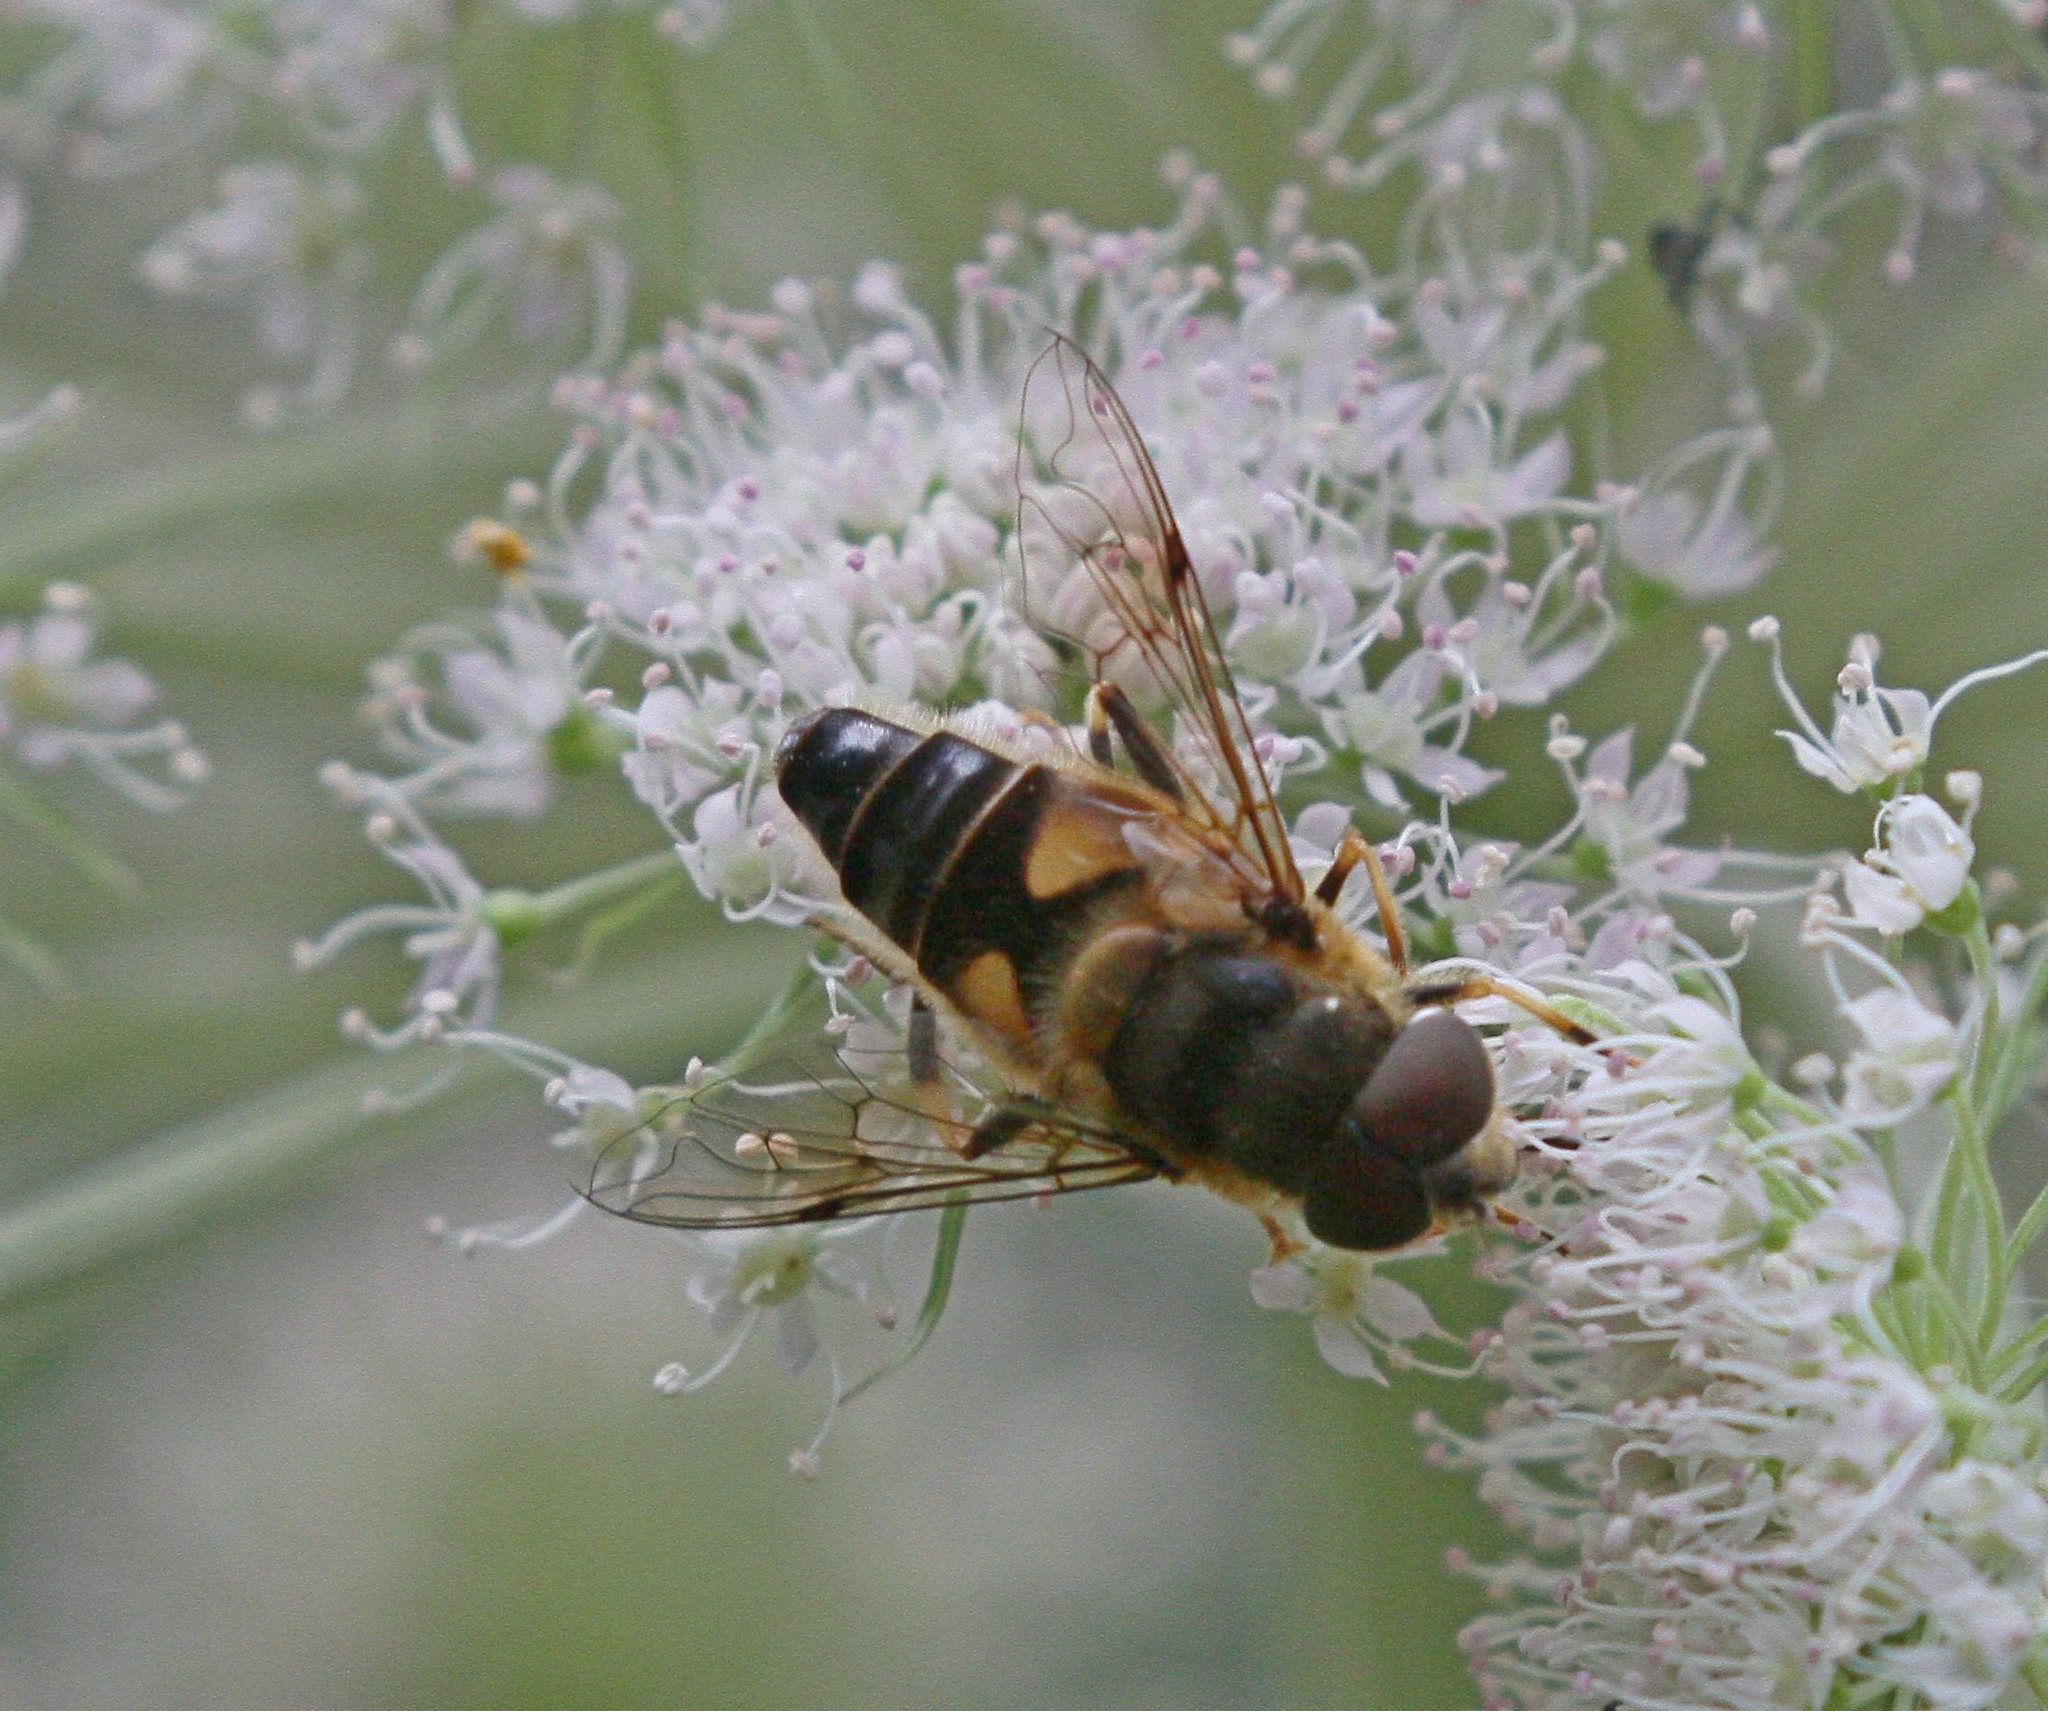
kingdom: Animalia
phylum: Arthropoda
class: Insecta
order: Diptera
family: Syrphidae
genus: Eristalis
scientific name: Eristalis pertinax
